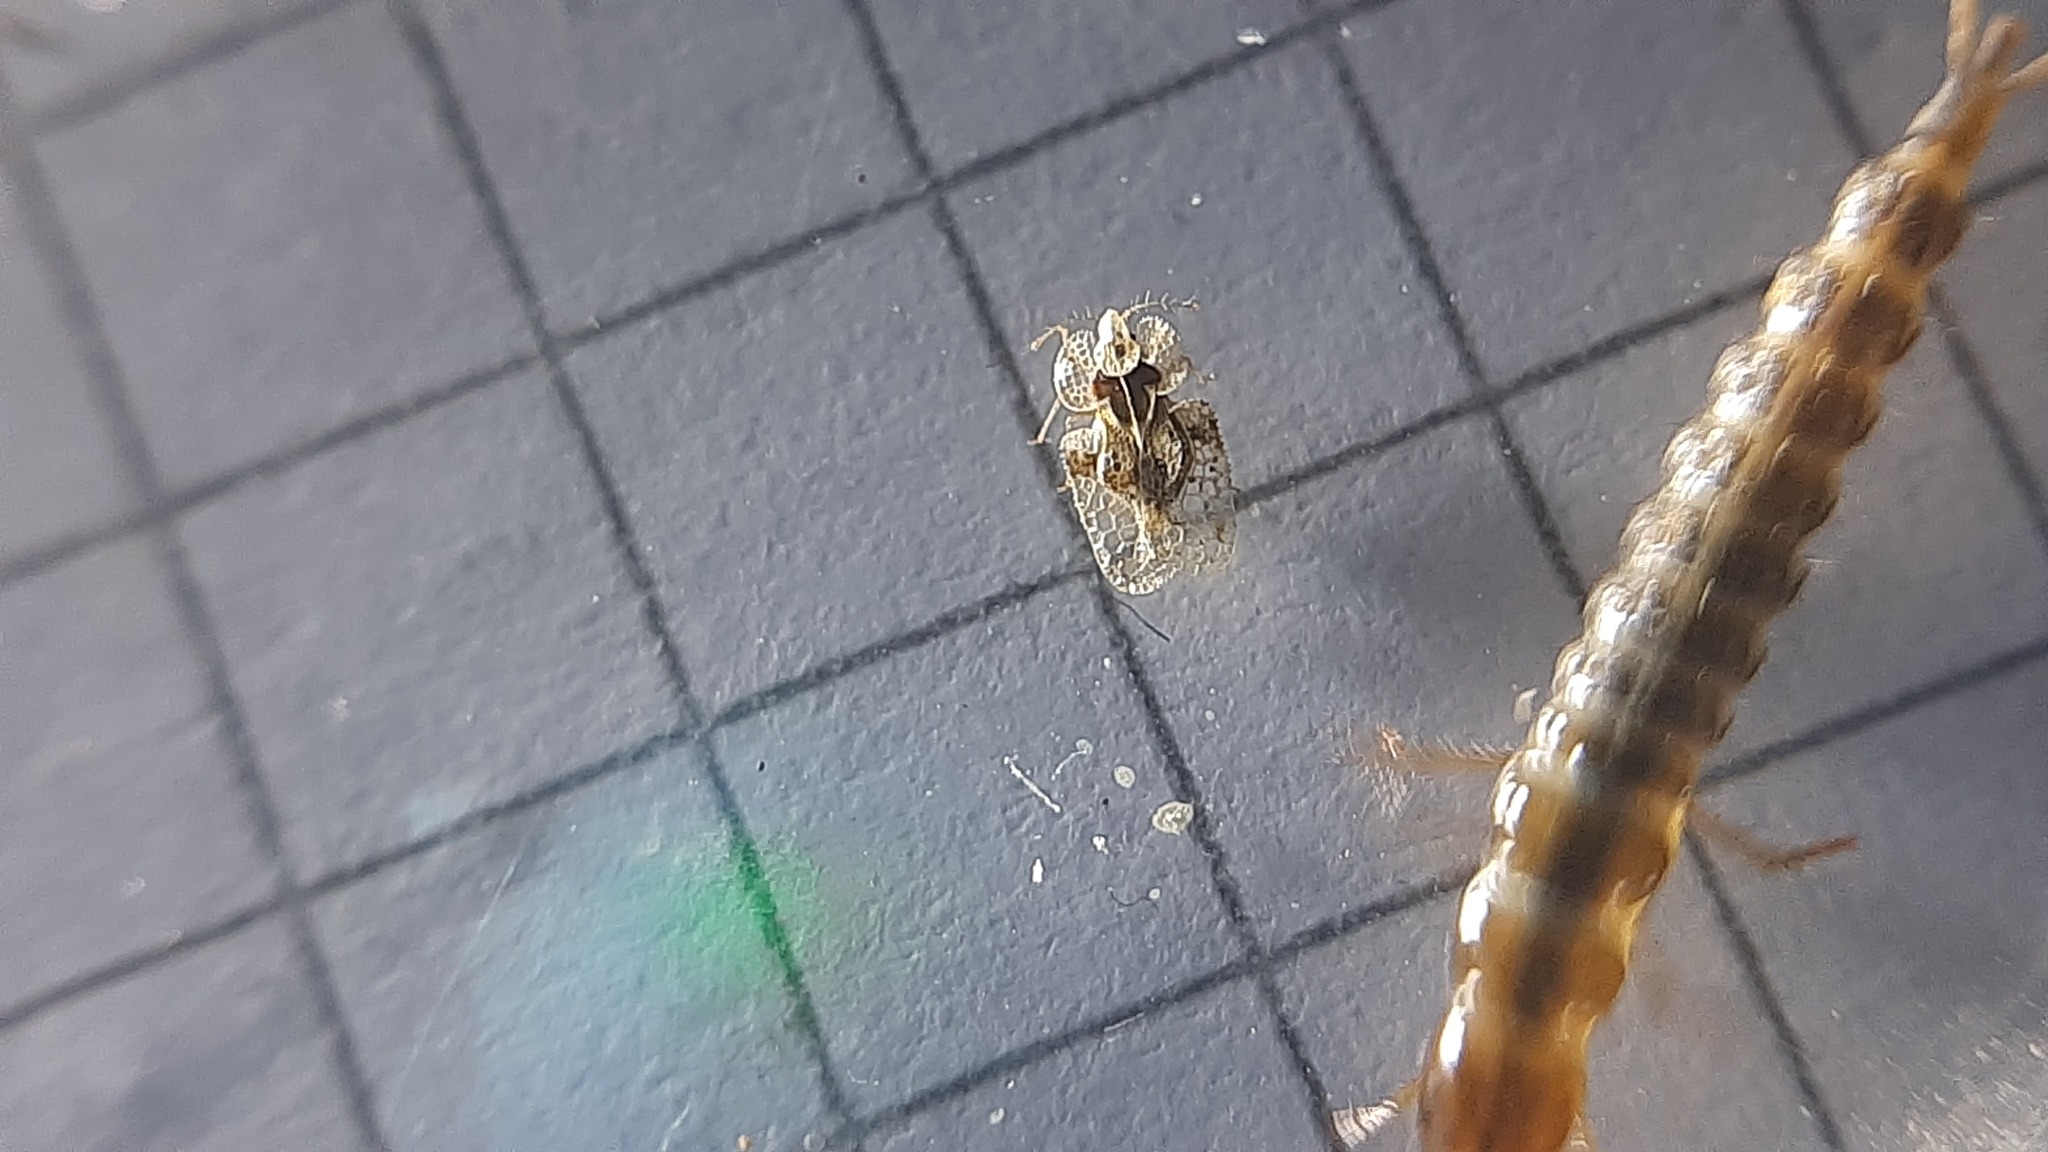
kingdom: Animalia
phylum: Arthropoda
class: Insecta
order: Hemiptera
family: Tingidae
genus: Corythucha
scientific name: Corythucha arcuata
